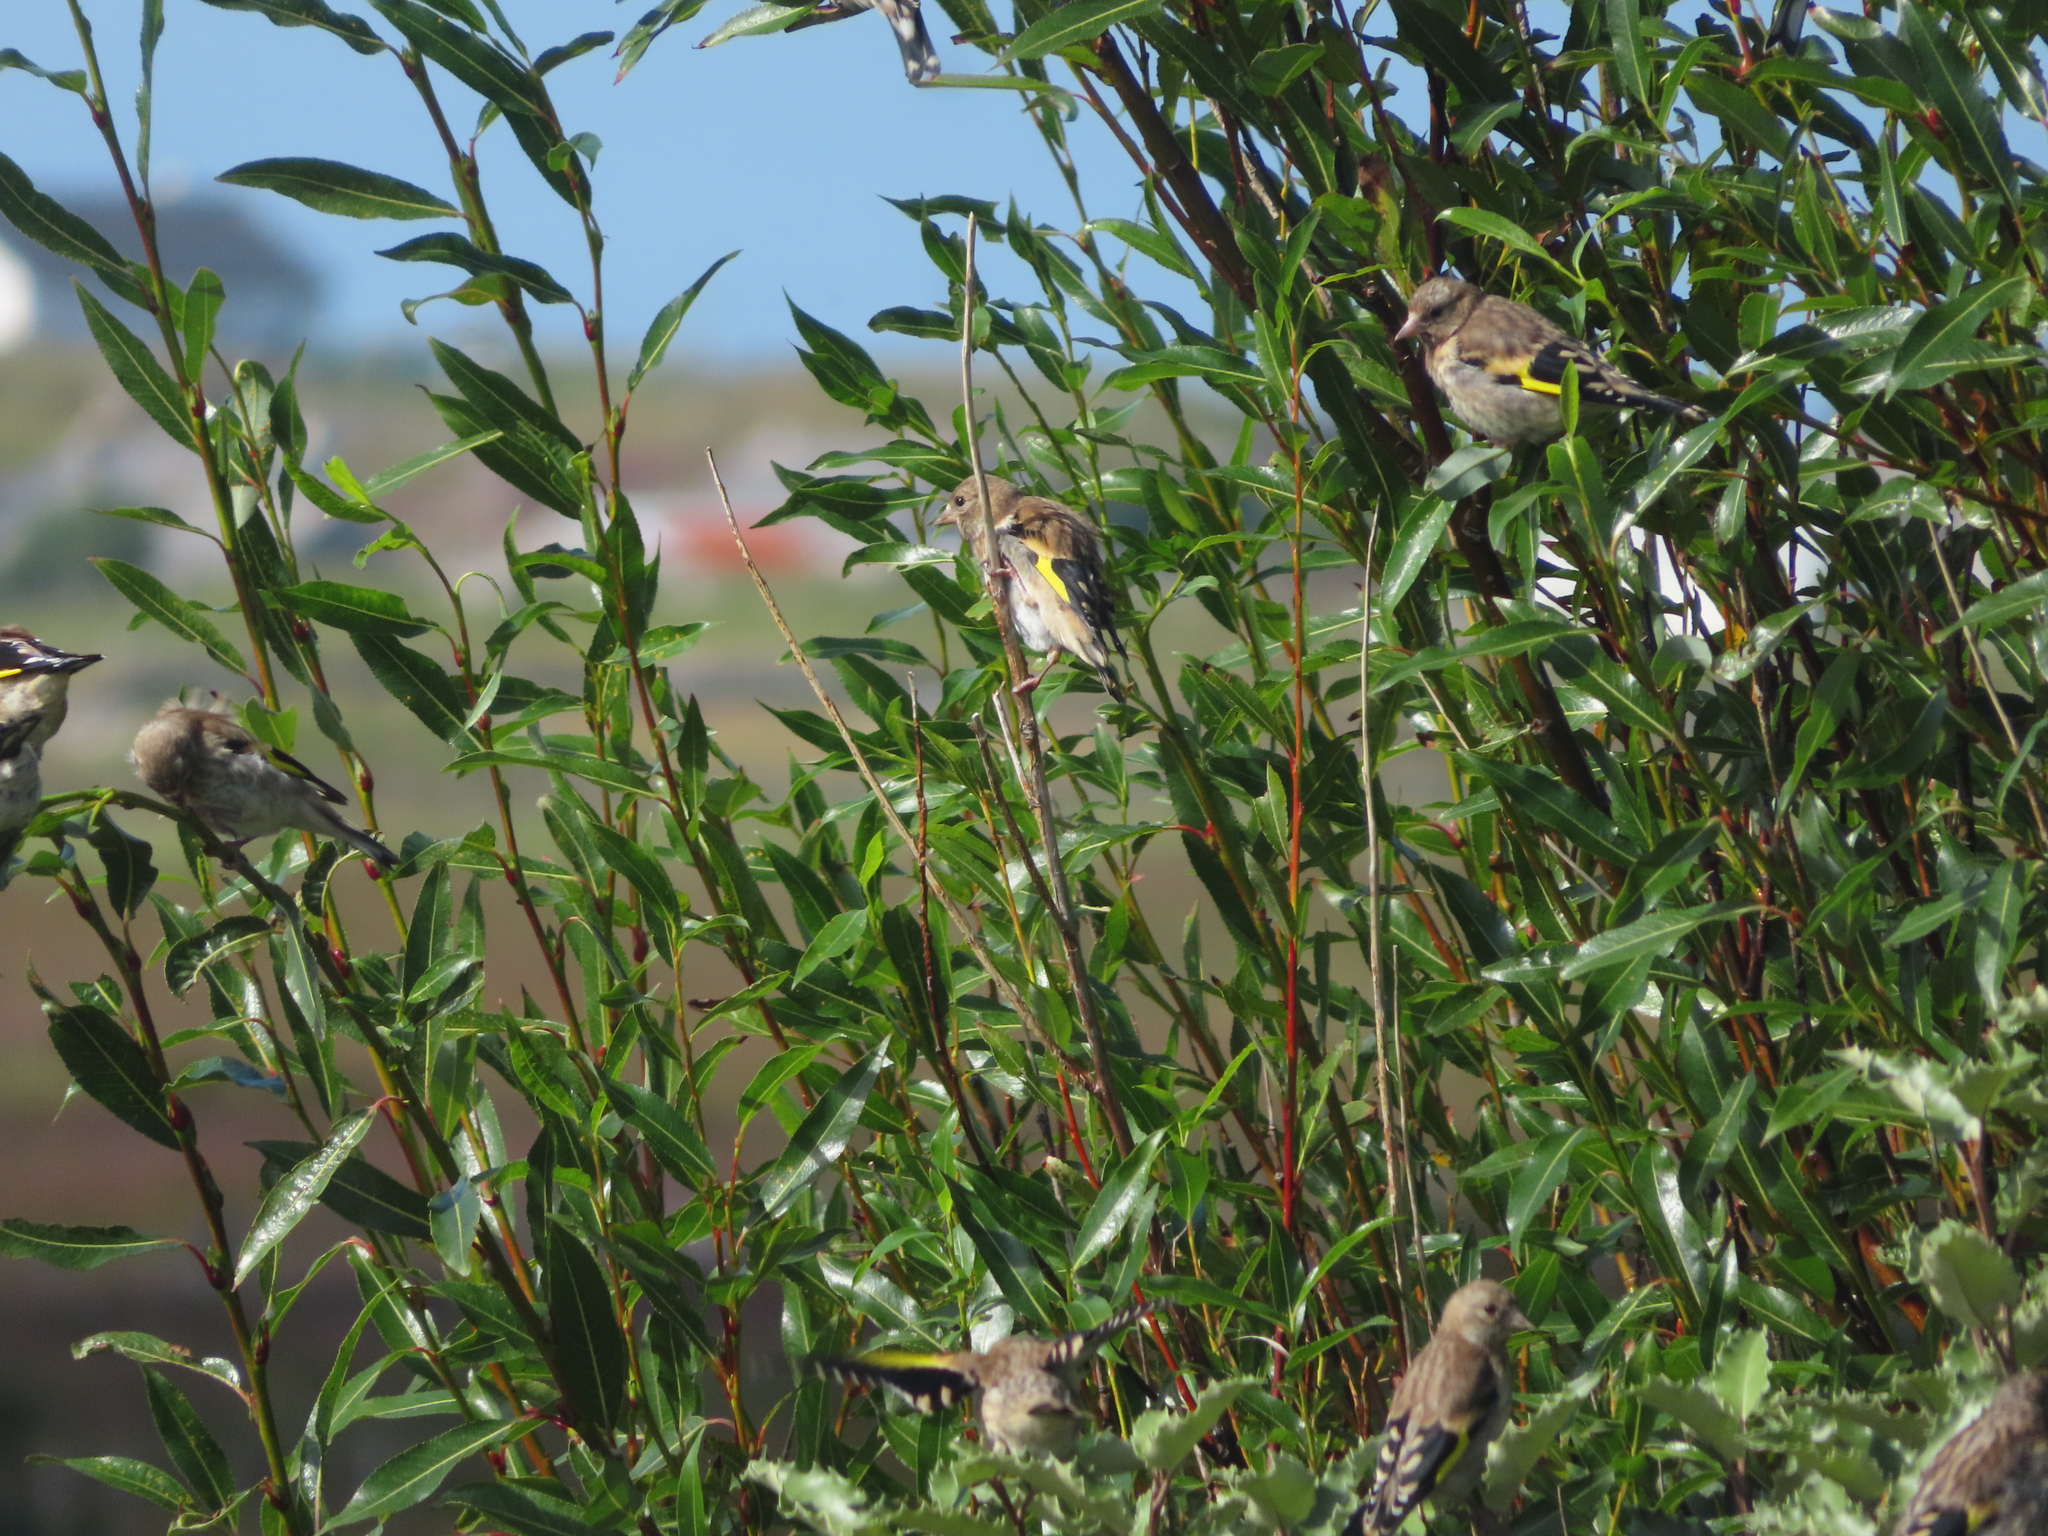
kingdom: Animalia
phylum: Chordata
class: Aves
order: Passeriformes
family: Fringillidae
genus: Carduelis
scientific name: Carduelis carduelis
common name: European goldfinch
